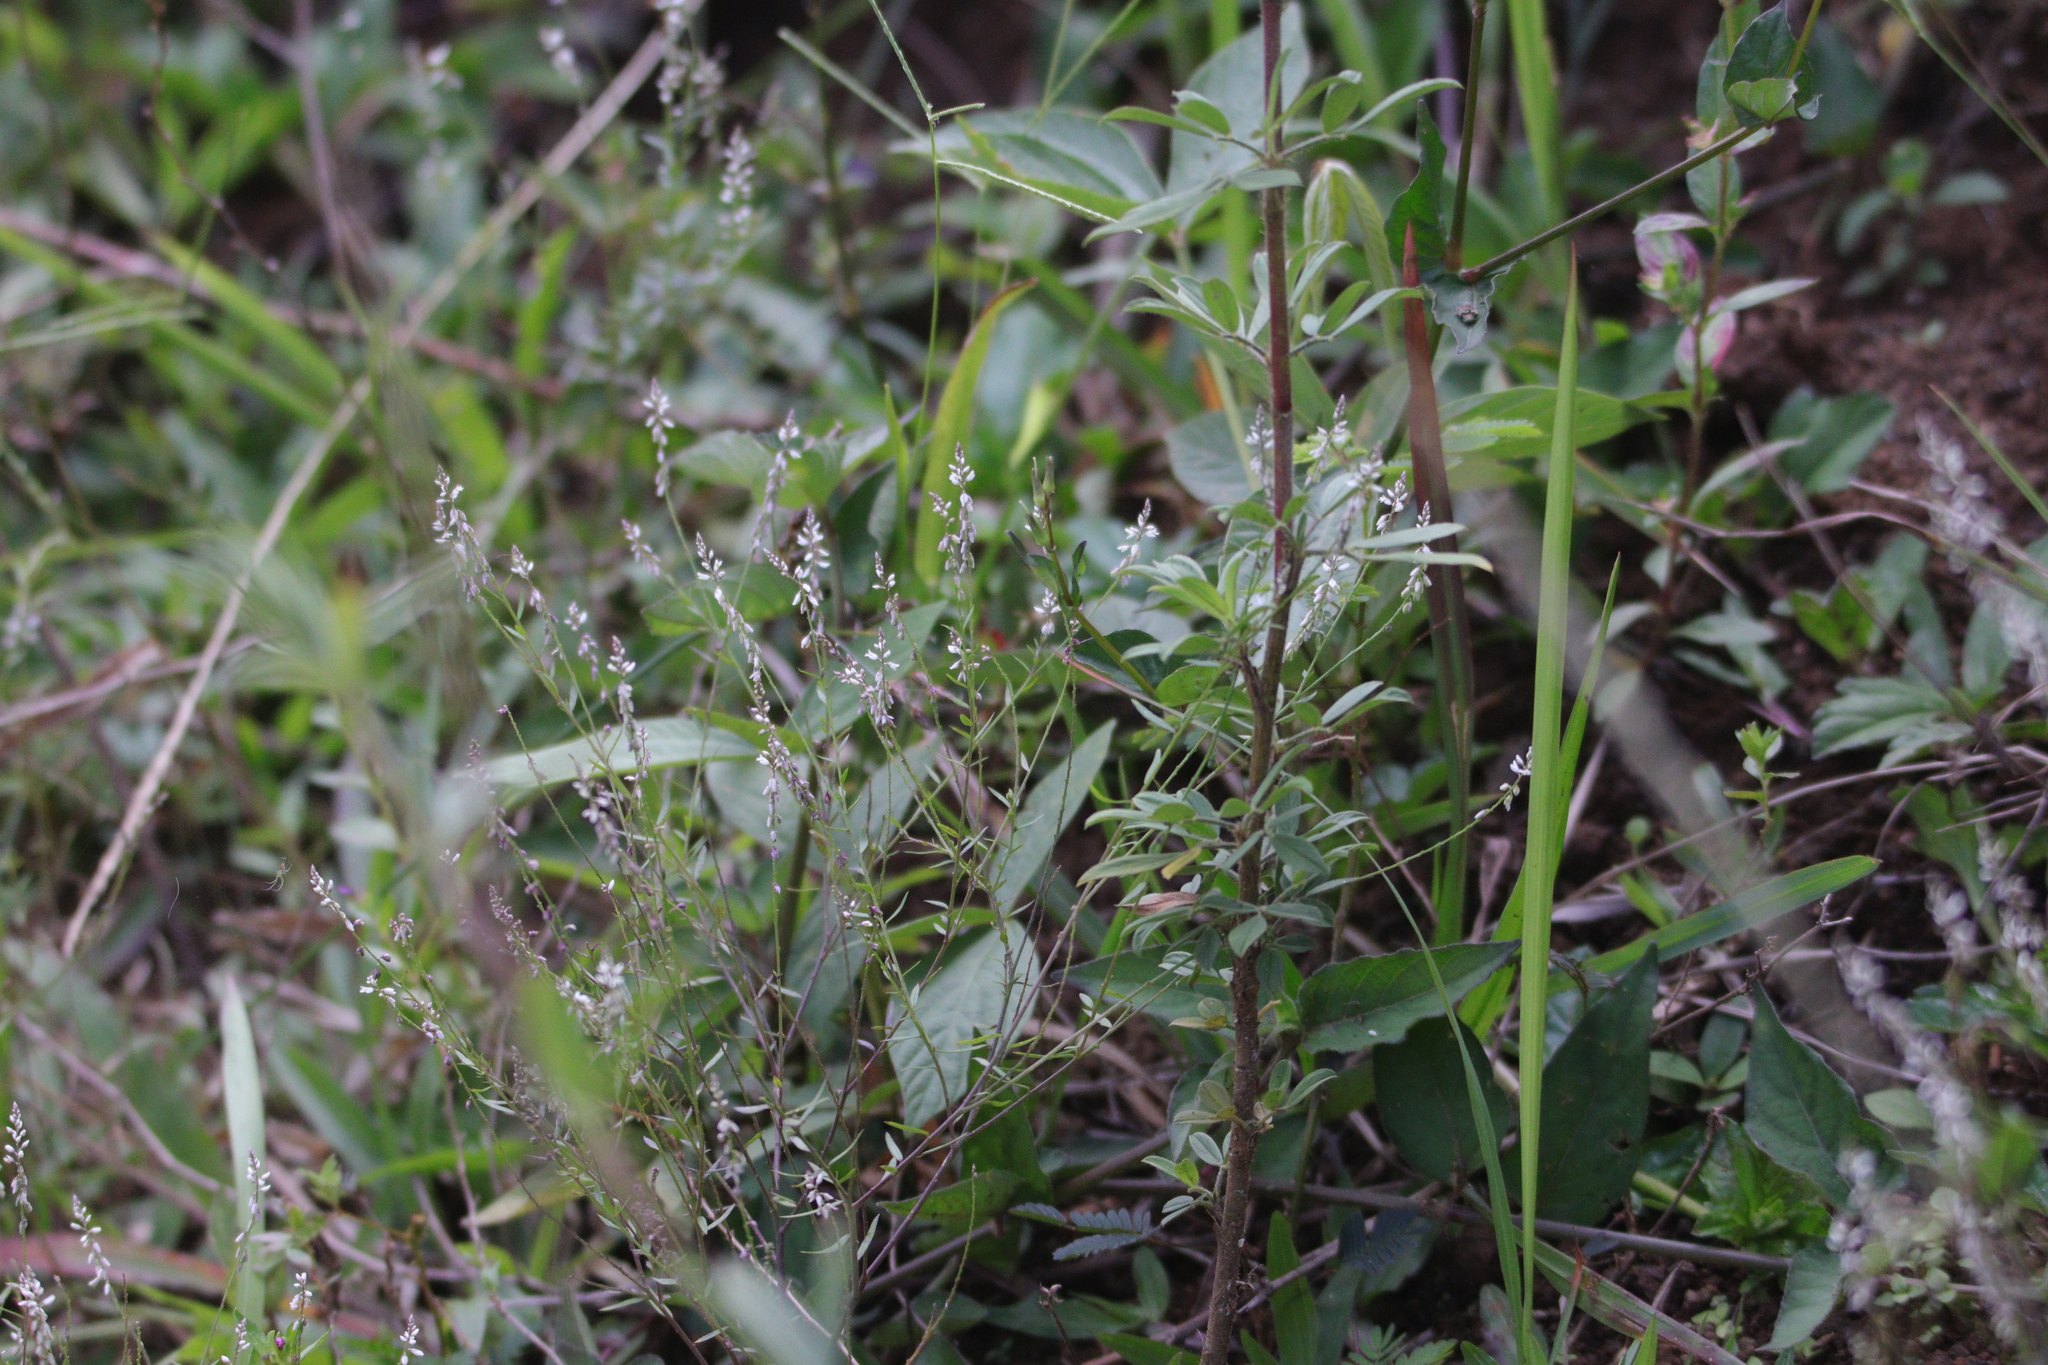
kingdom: Plantae
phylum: Tracheophyta
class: Magnoliopsida
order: Fabales
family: Polygalaceae
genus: Polygala
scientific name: Polygala paniculata
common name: Orosne
